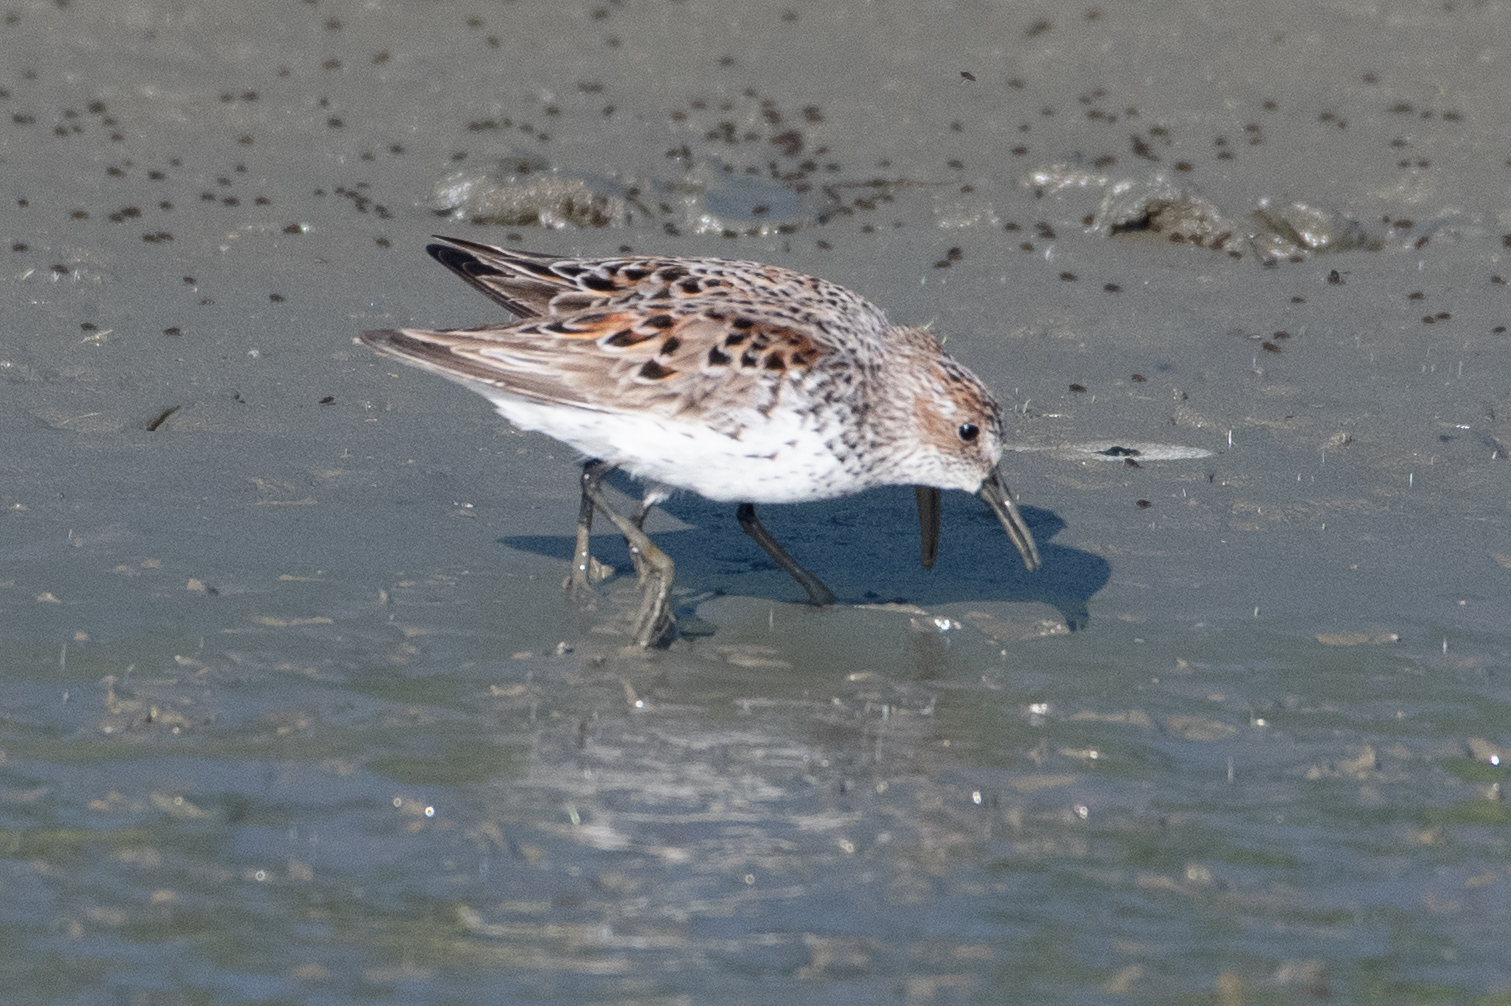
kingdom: Animalia
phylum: Chordata
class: Aves
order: Charadriiformes
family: Scolopacidae
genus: Calidris
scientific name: Calidris mauri
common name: Western sandpiper
